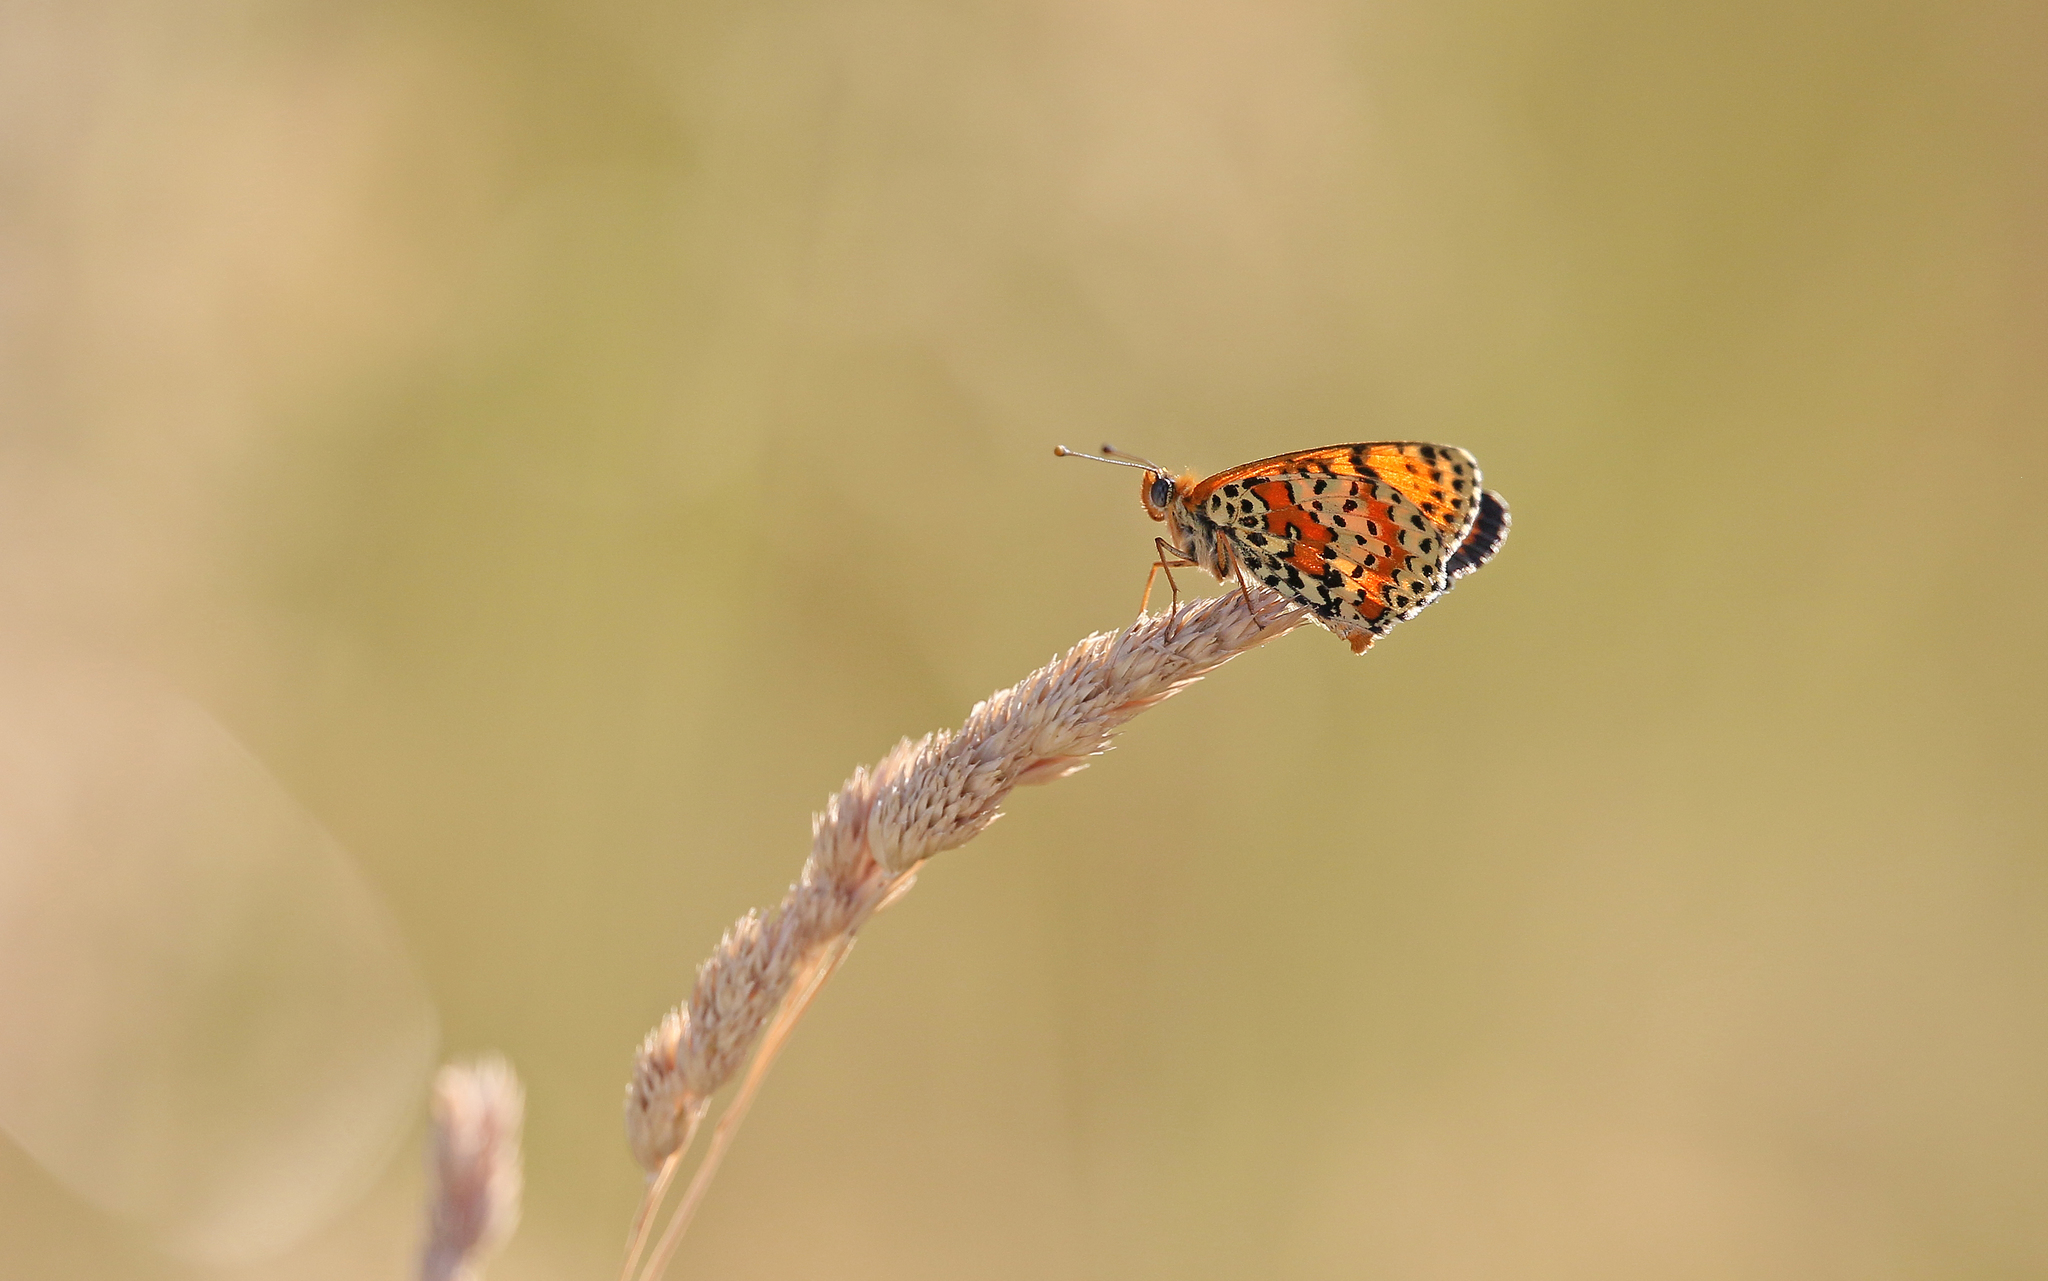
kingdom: Animalia
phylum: Arthropoda
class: Insecta
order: Lepidoptera
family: Nymphalidae
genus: Melitaea
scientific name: Melitaea didyma
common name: Spotted fritillary
